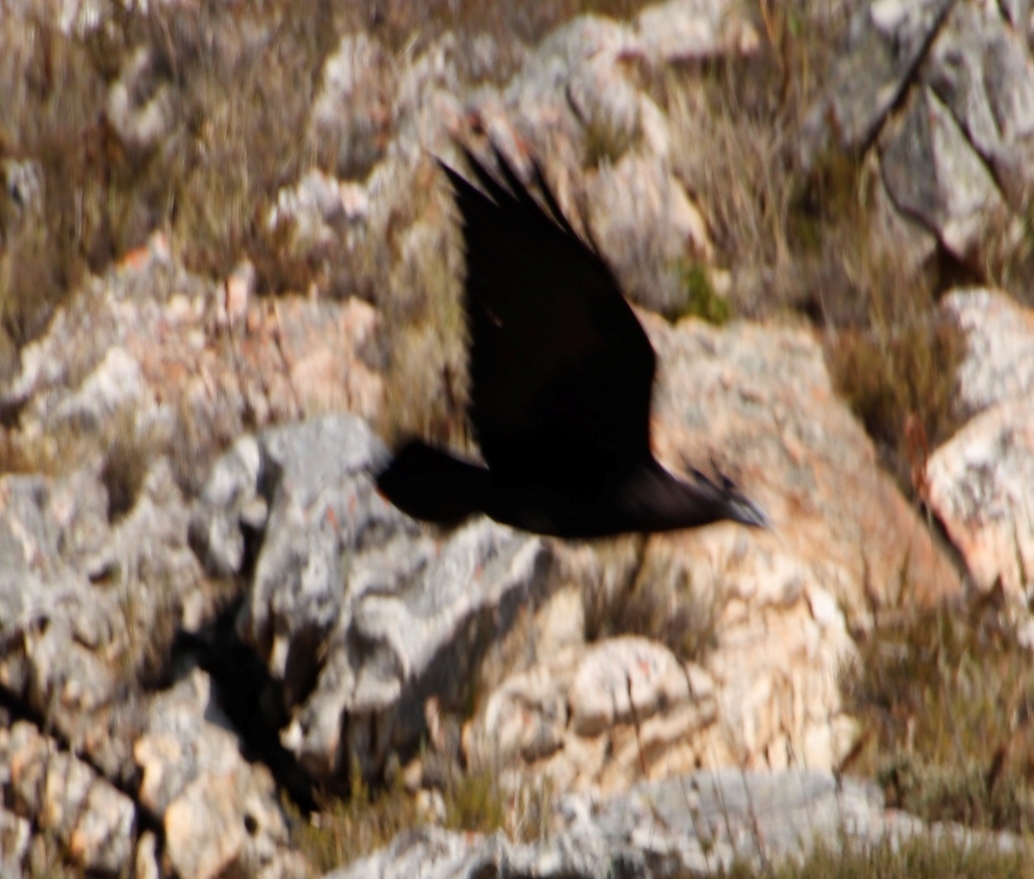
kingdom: Animalia
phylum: Chordata
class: Aves
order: Passeriformes
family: Corvidae
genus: Corvus
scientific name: Corvus albicollis
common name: White-necked raven
